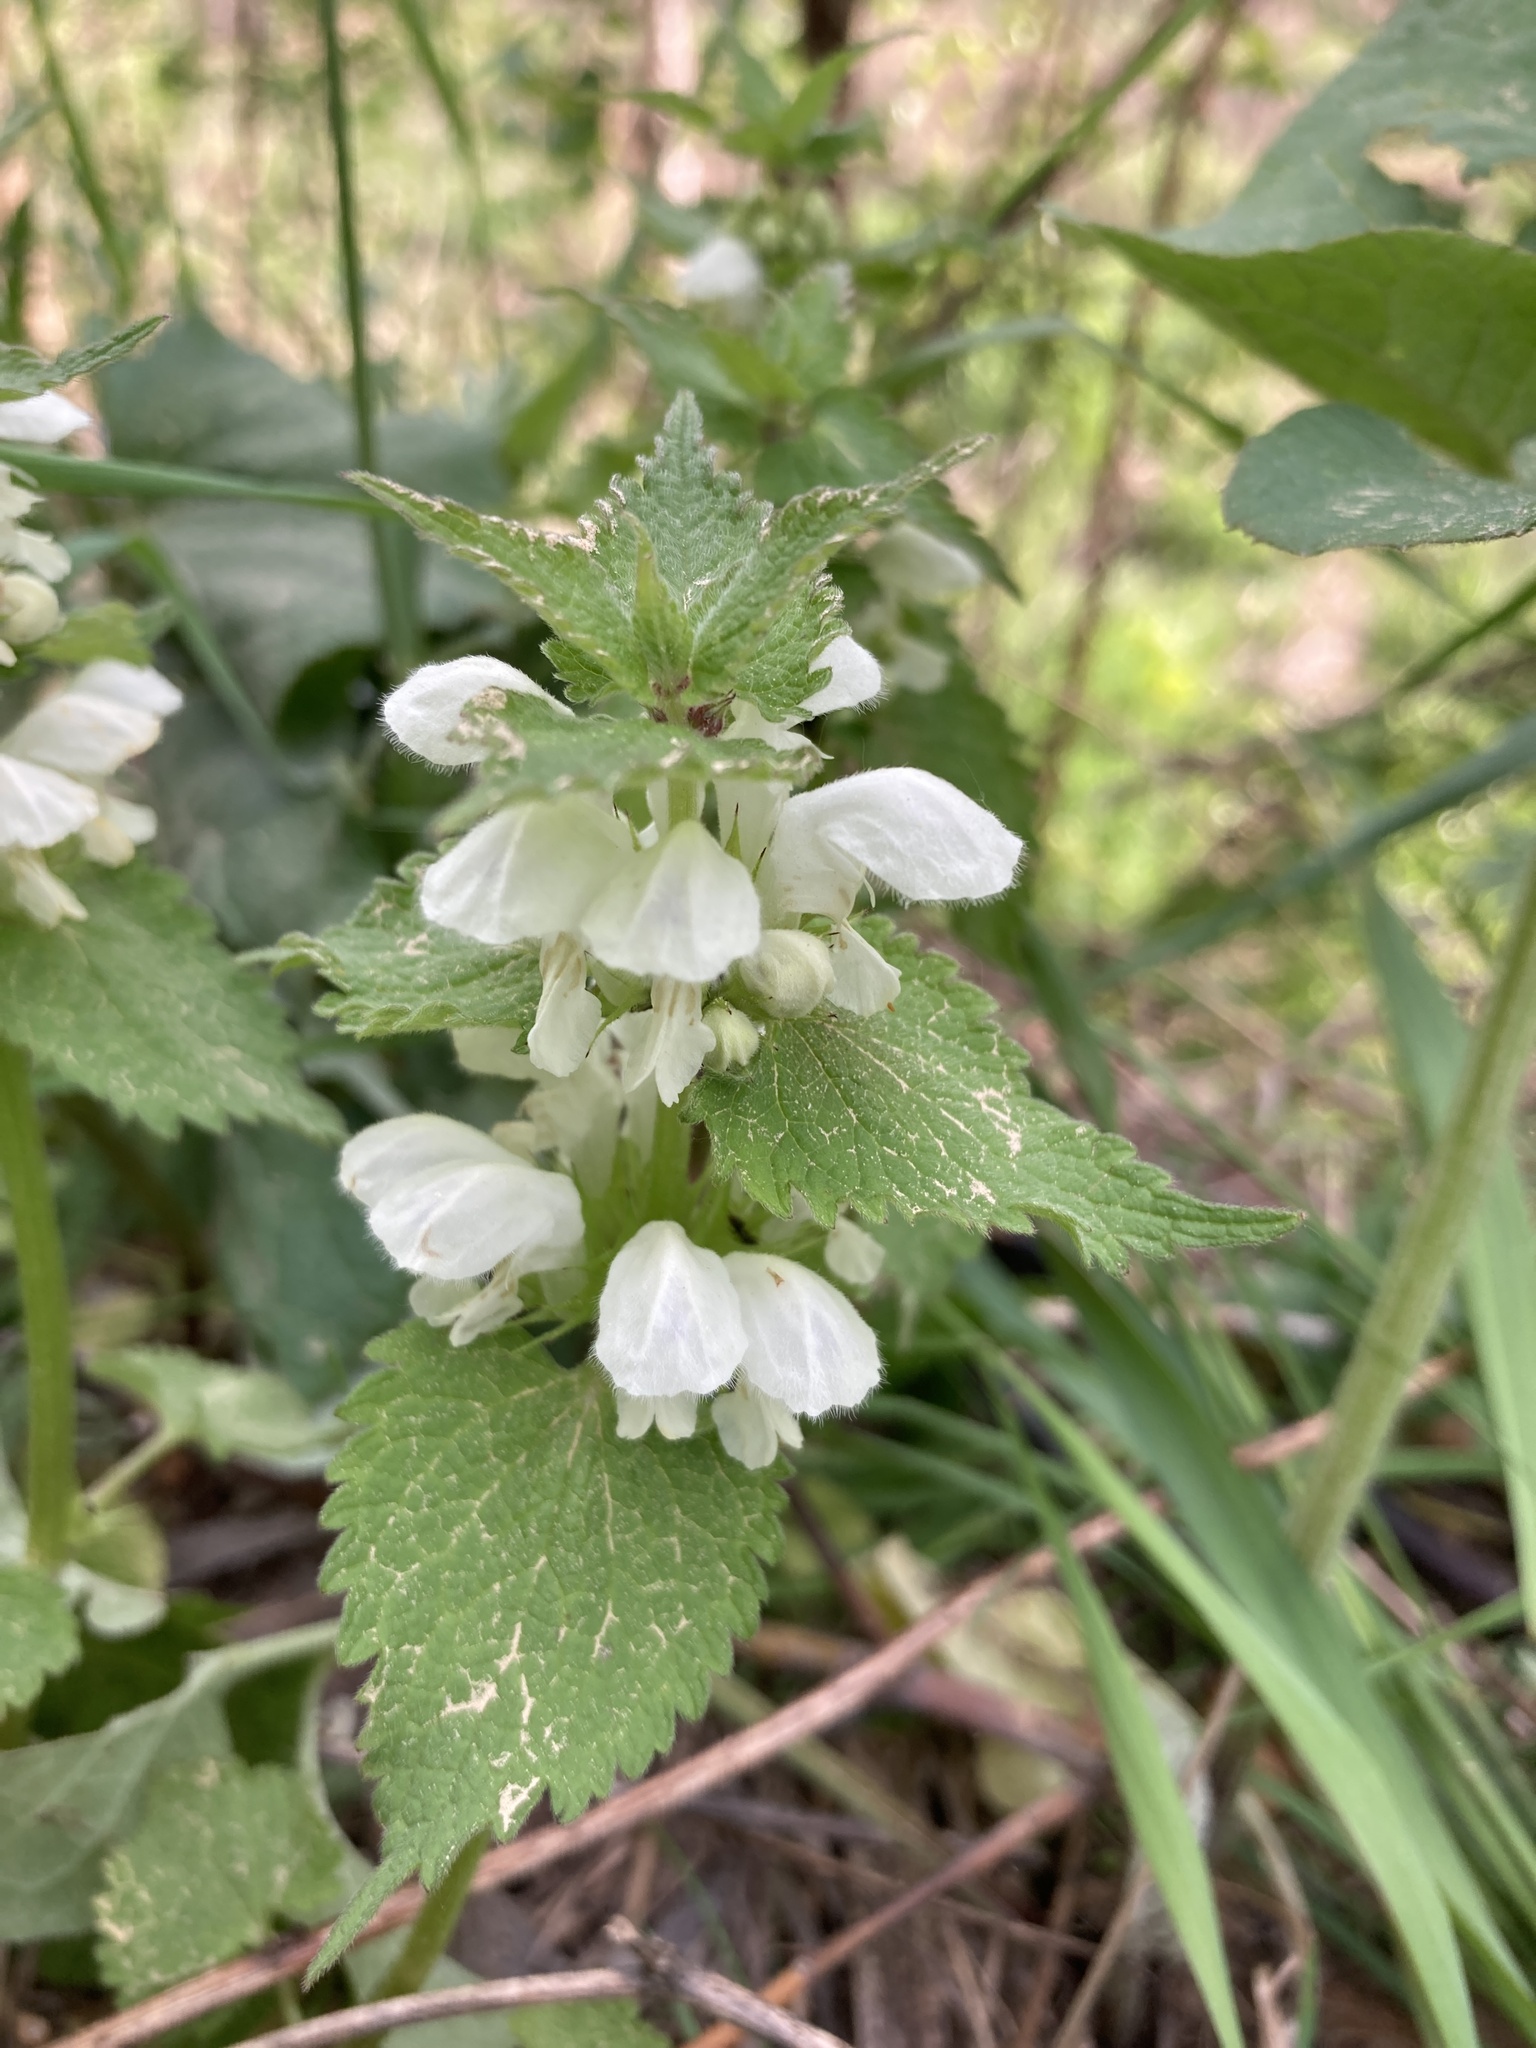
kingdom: Plantae
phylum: Tracheophyta
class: Magnoliopsida
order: Lamiales
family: Lamiaceae
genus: Lamium
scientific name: Lamium album
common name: White dead-nettle
